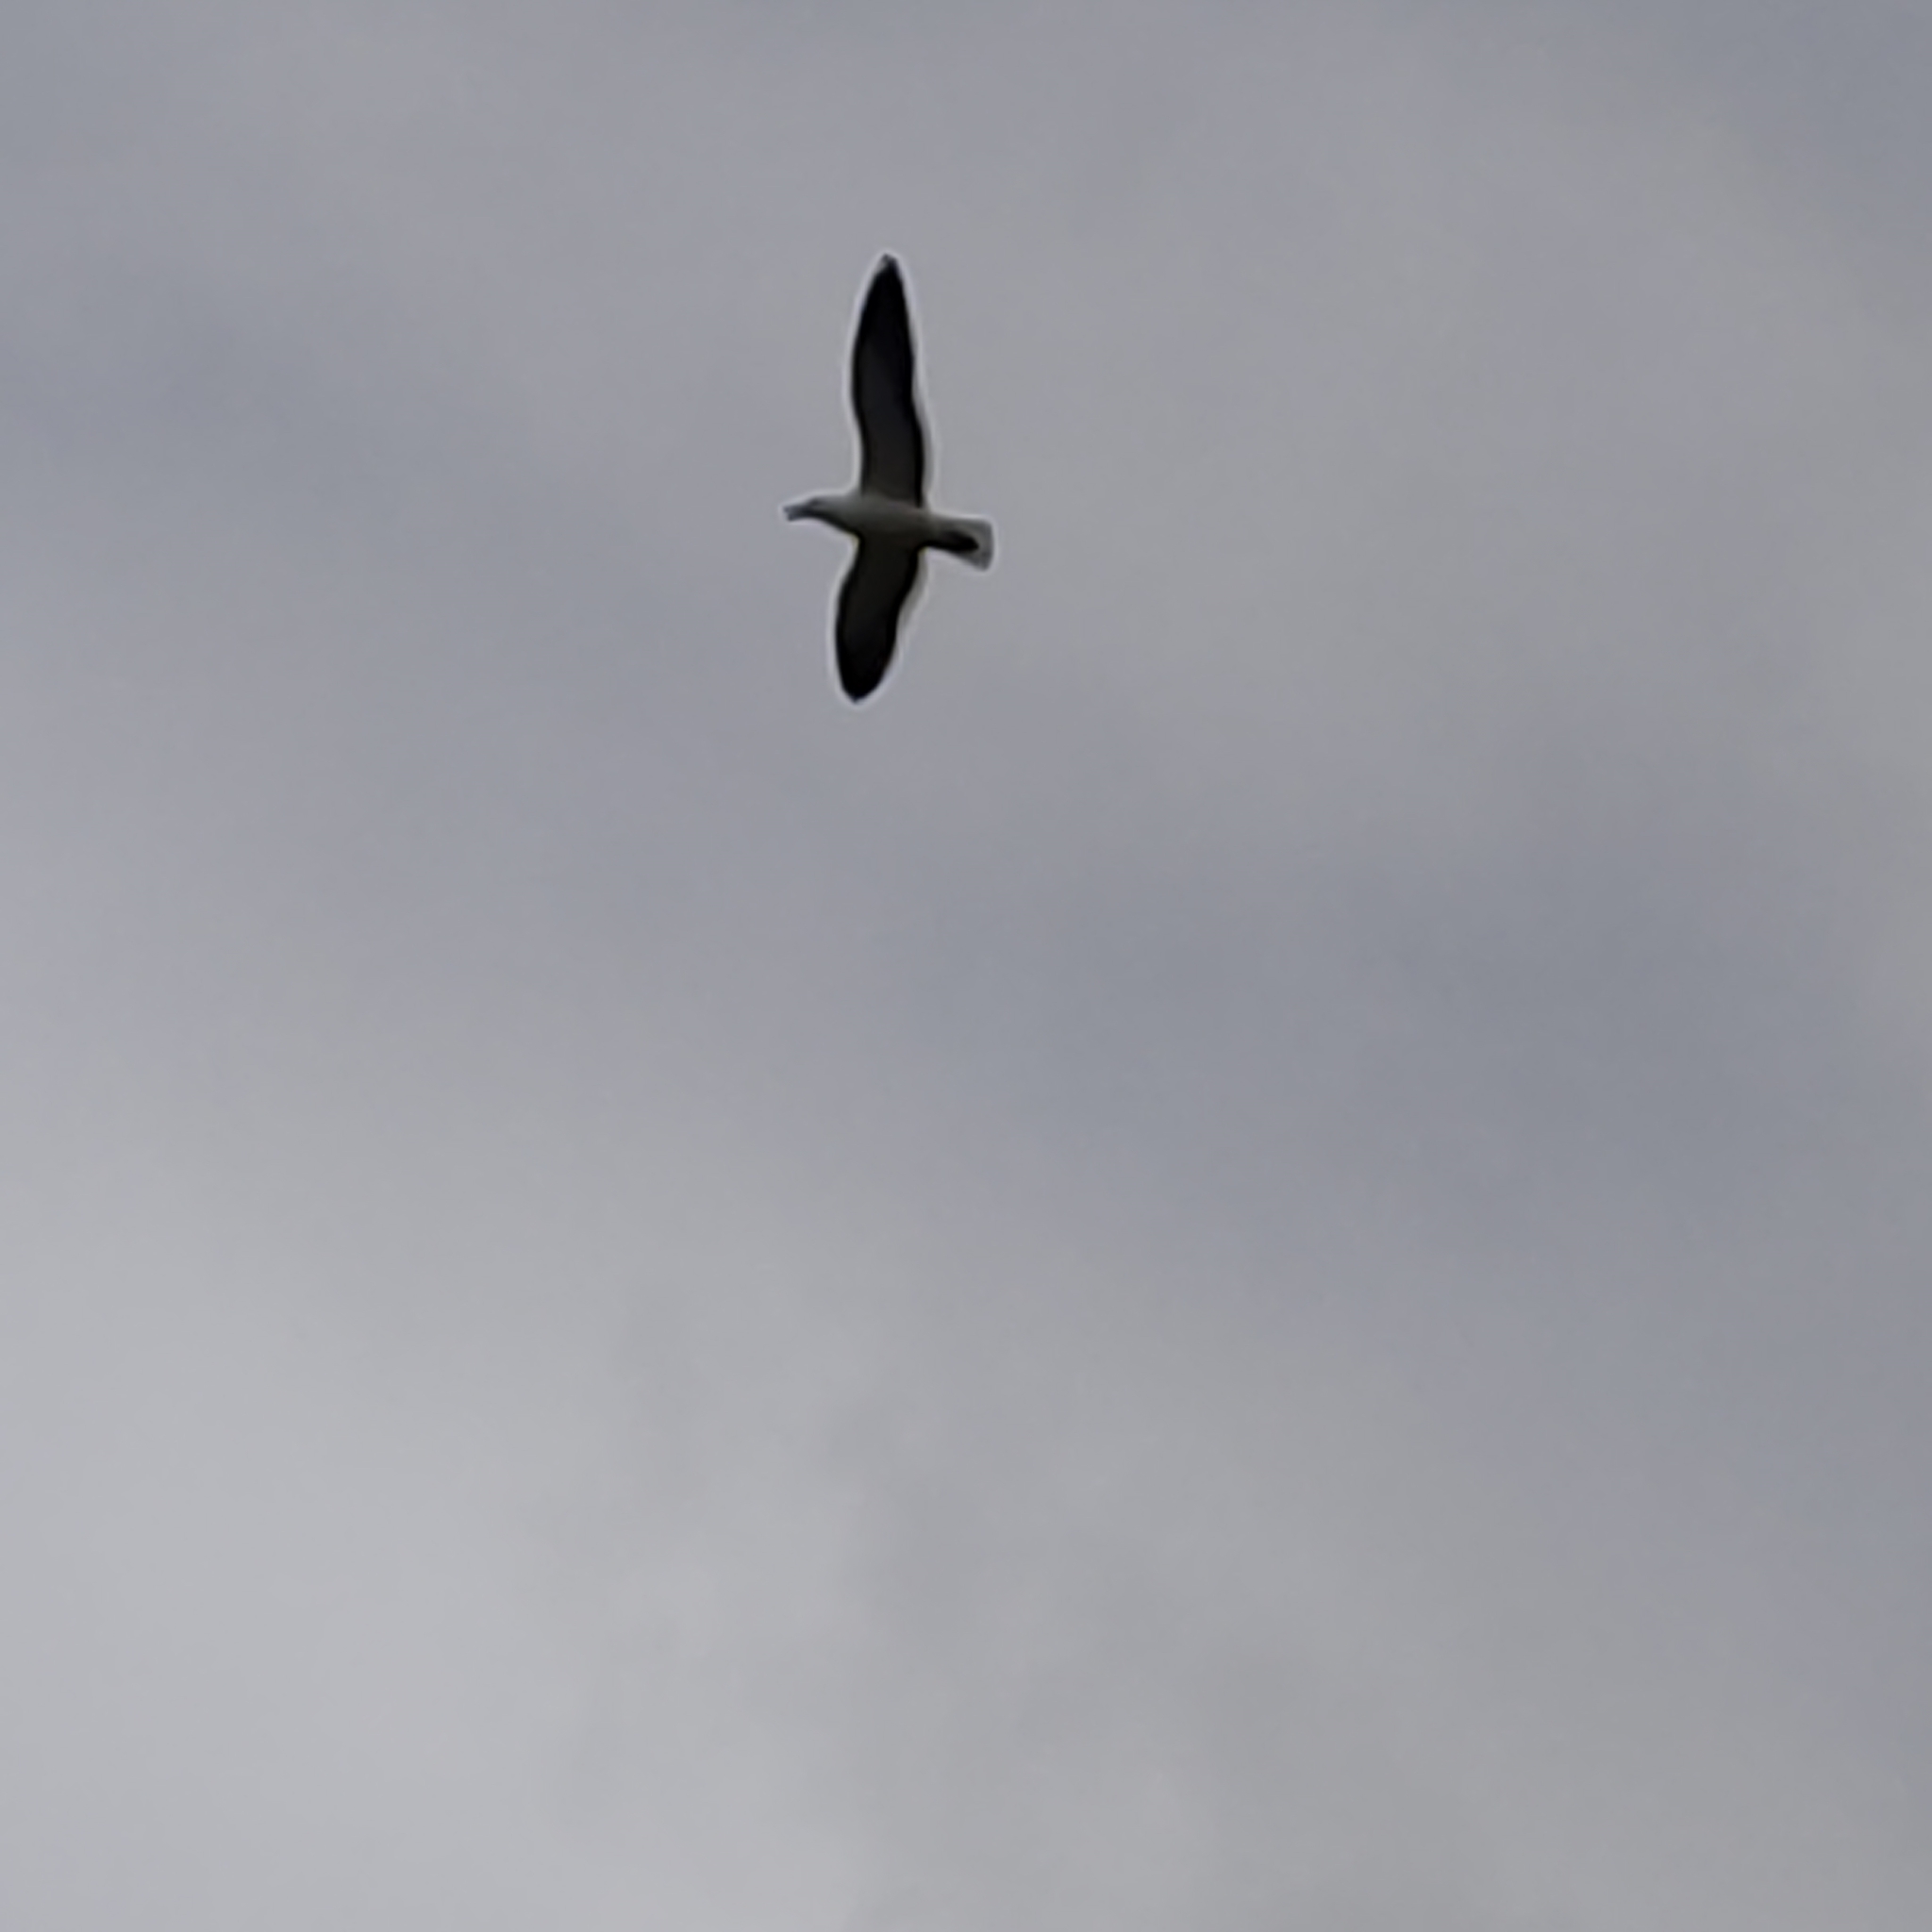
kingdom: Animalia
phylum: Chordata
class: Aves
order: Charadriiformes
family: Laridae
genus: Larus
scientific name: Larus dominicanus
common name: Kelp gull
